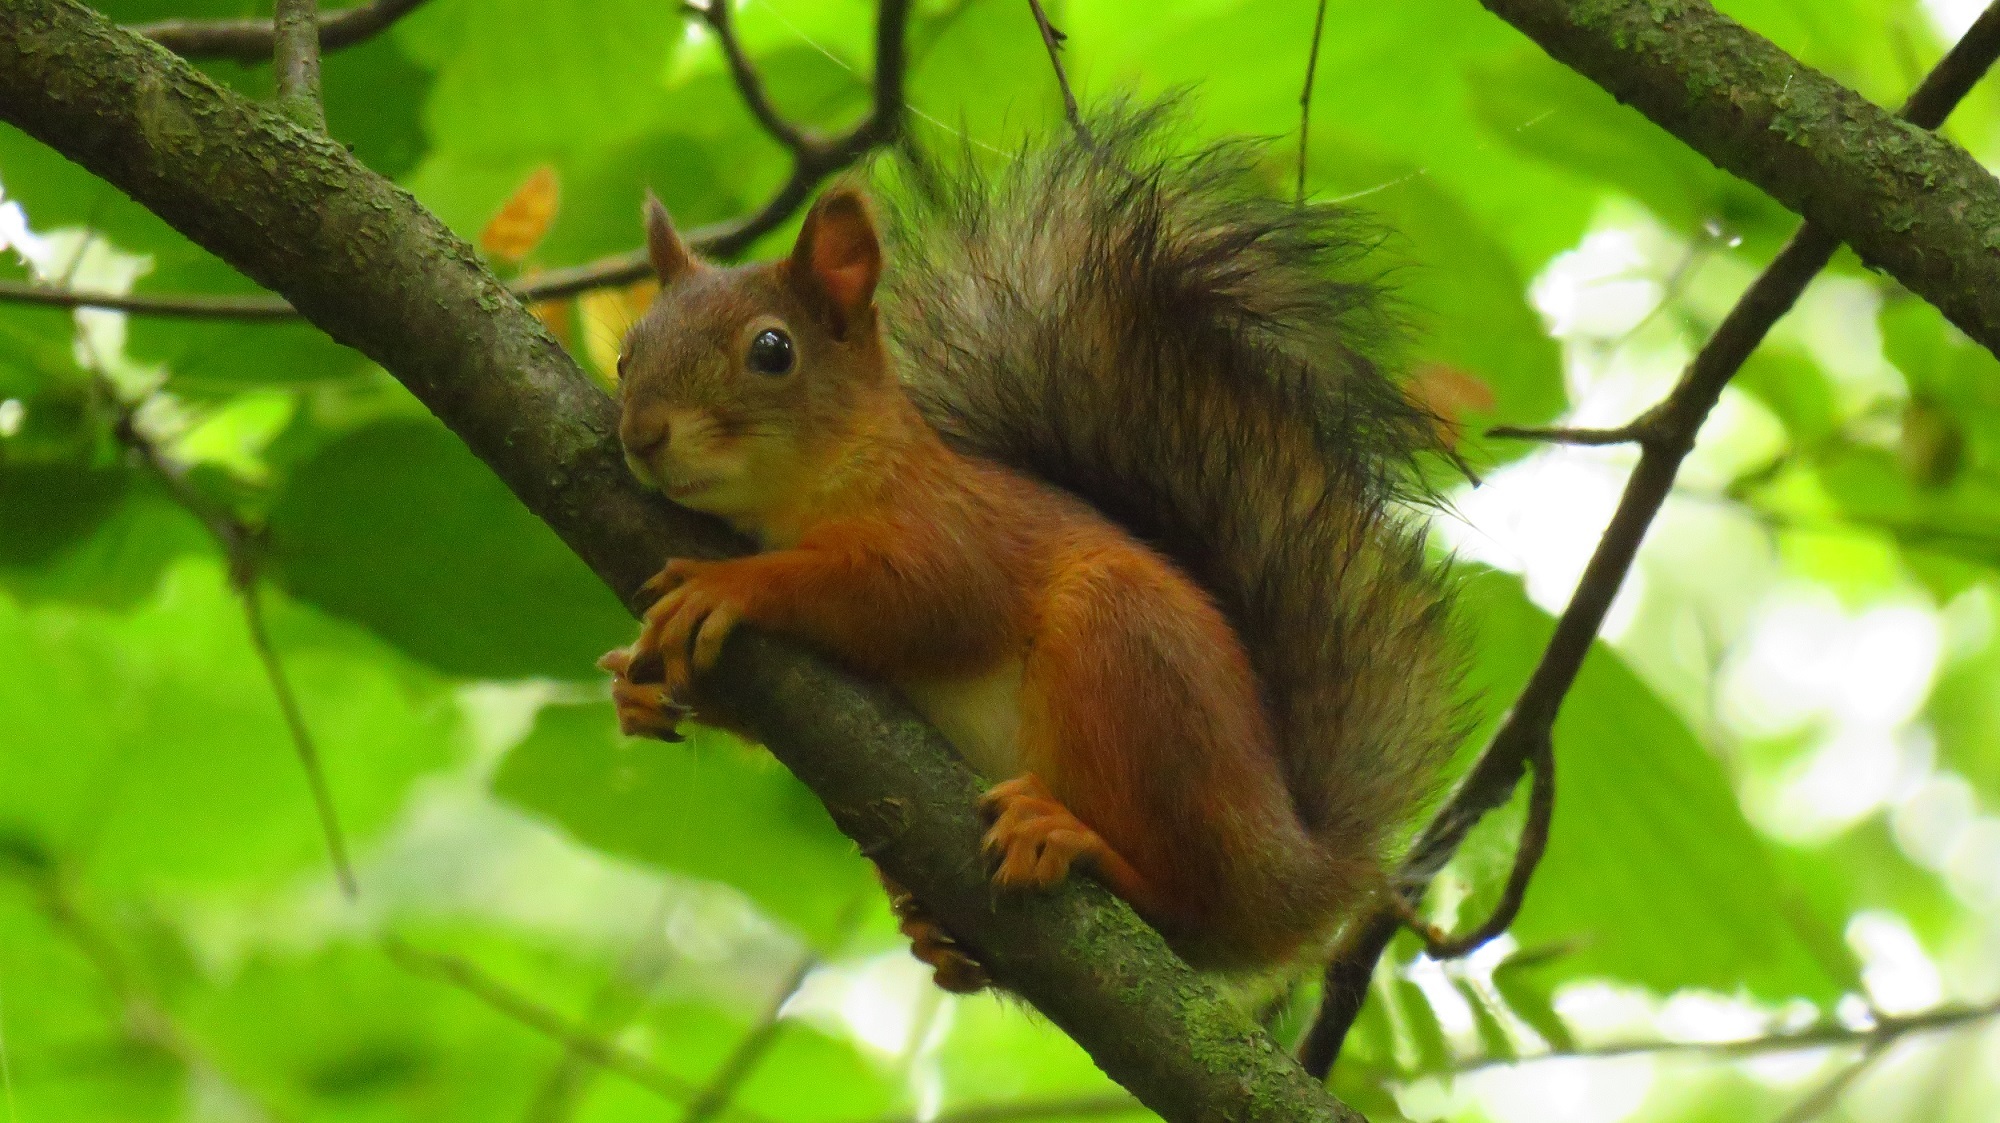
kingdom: Animalia
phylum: Chordata
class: Mammalia
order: Rodentia
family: Sciuridae
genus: Sciurus
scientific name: Sciurus vulgaris
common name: Eurasian red squirrel
